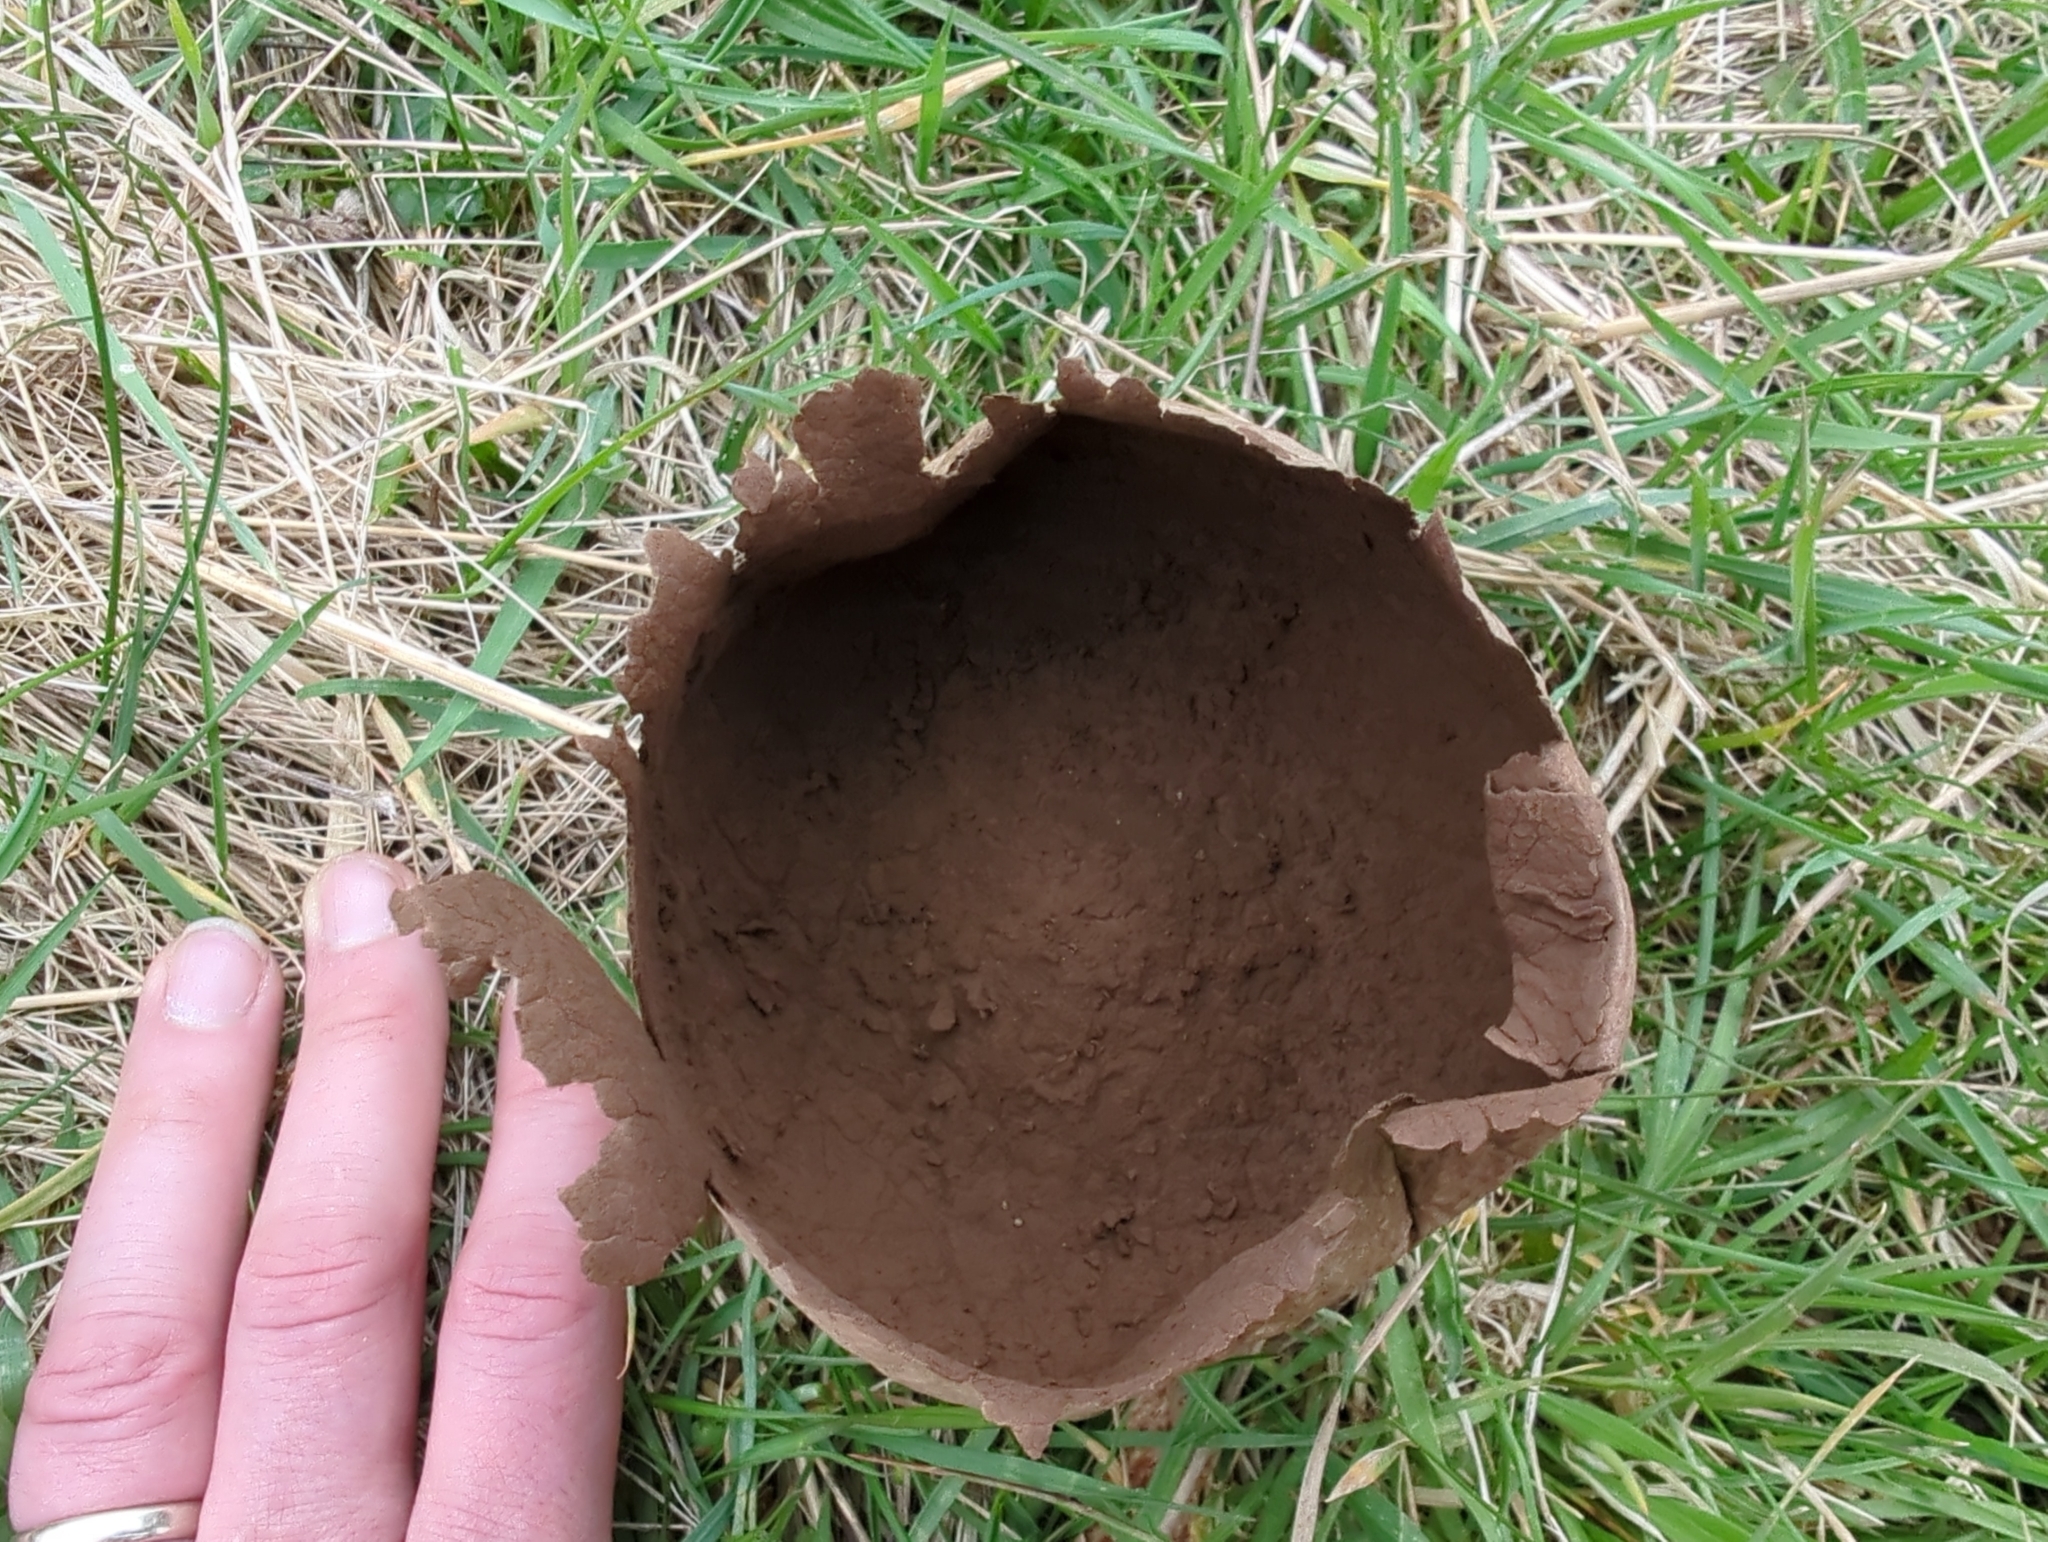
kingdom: Fungi
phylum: Basidiomycota
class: Agaricomycetes
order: Agaricales
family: Lycoperdaceae
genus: Bovistella
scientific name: Bovistella utriformis
